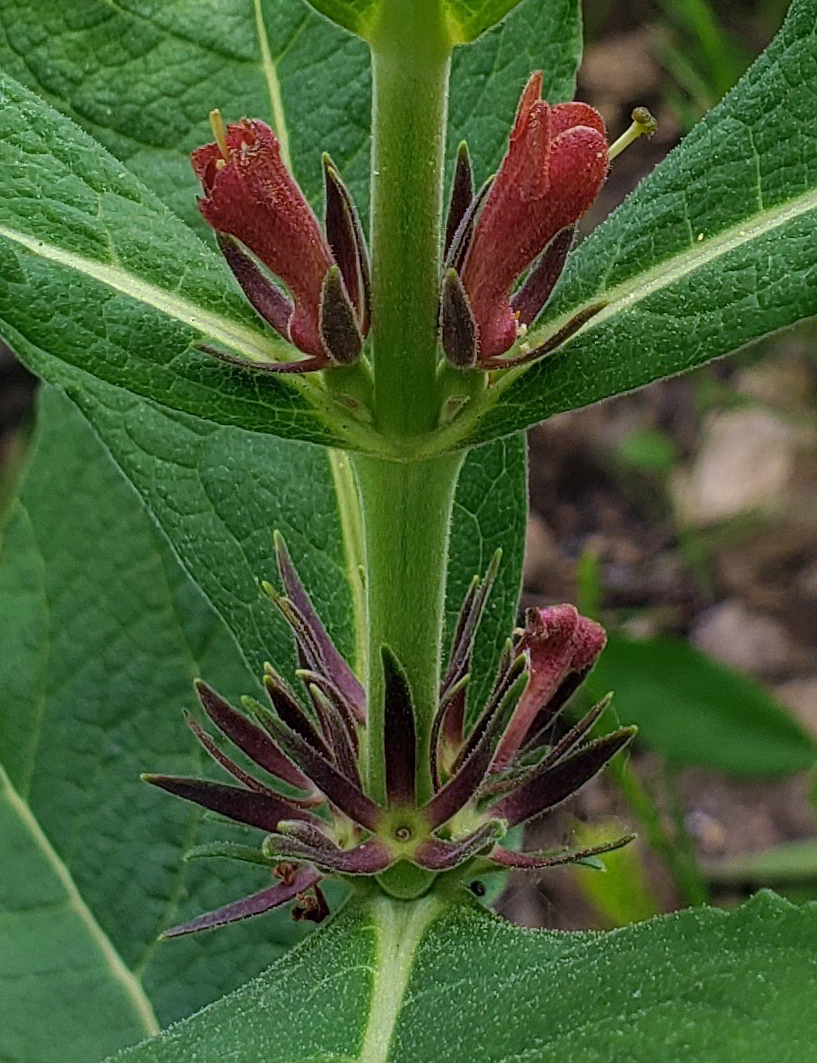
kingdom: Plantae
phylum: Tracheophyta
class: Magnoliopsida
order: Dipsacales
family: Caprifoliaceae
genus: Triosteum
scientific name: Triosteum aurantiacum
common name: Coffee tinker's-weed
